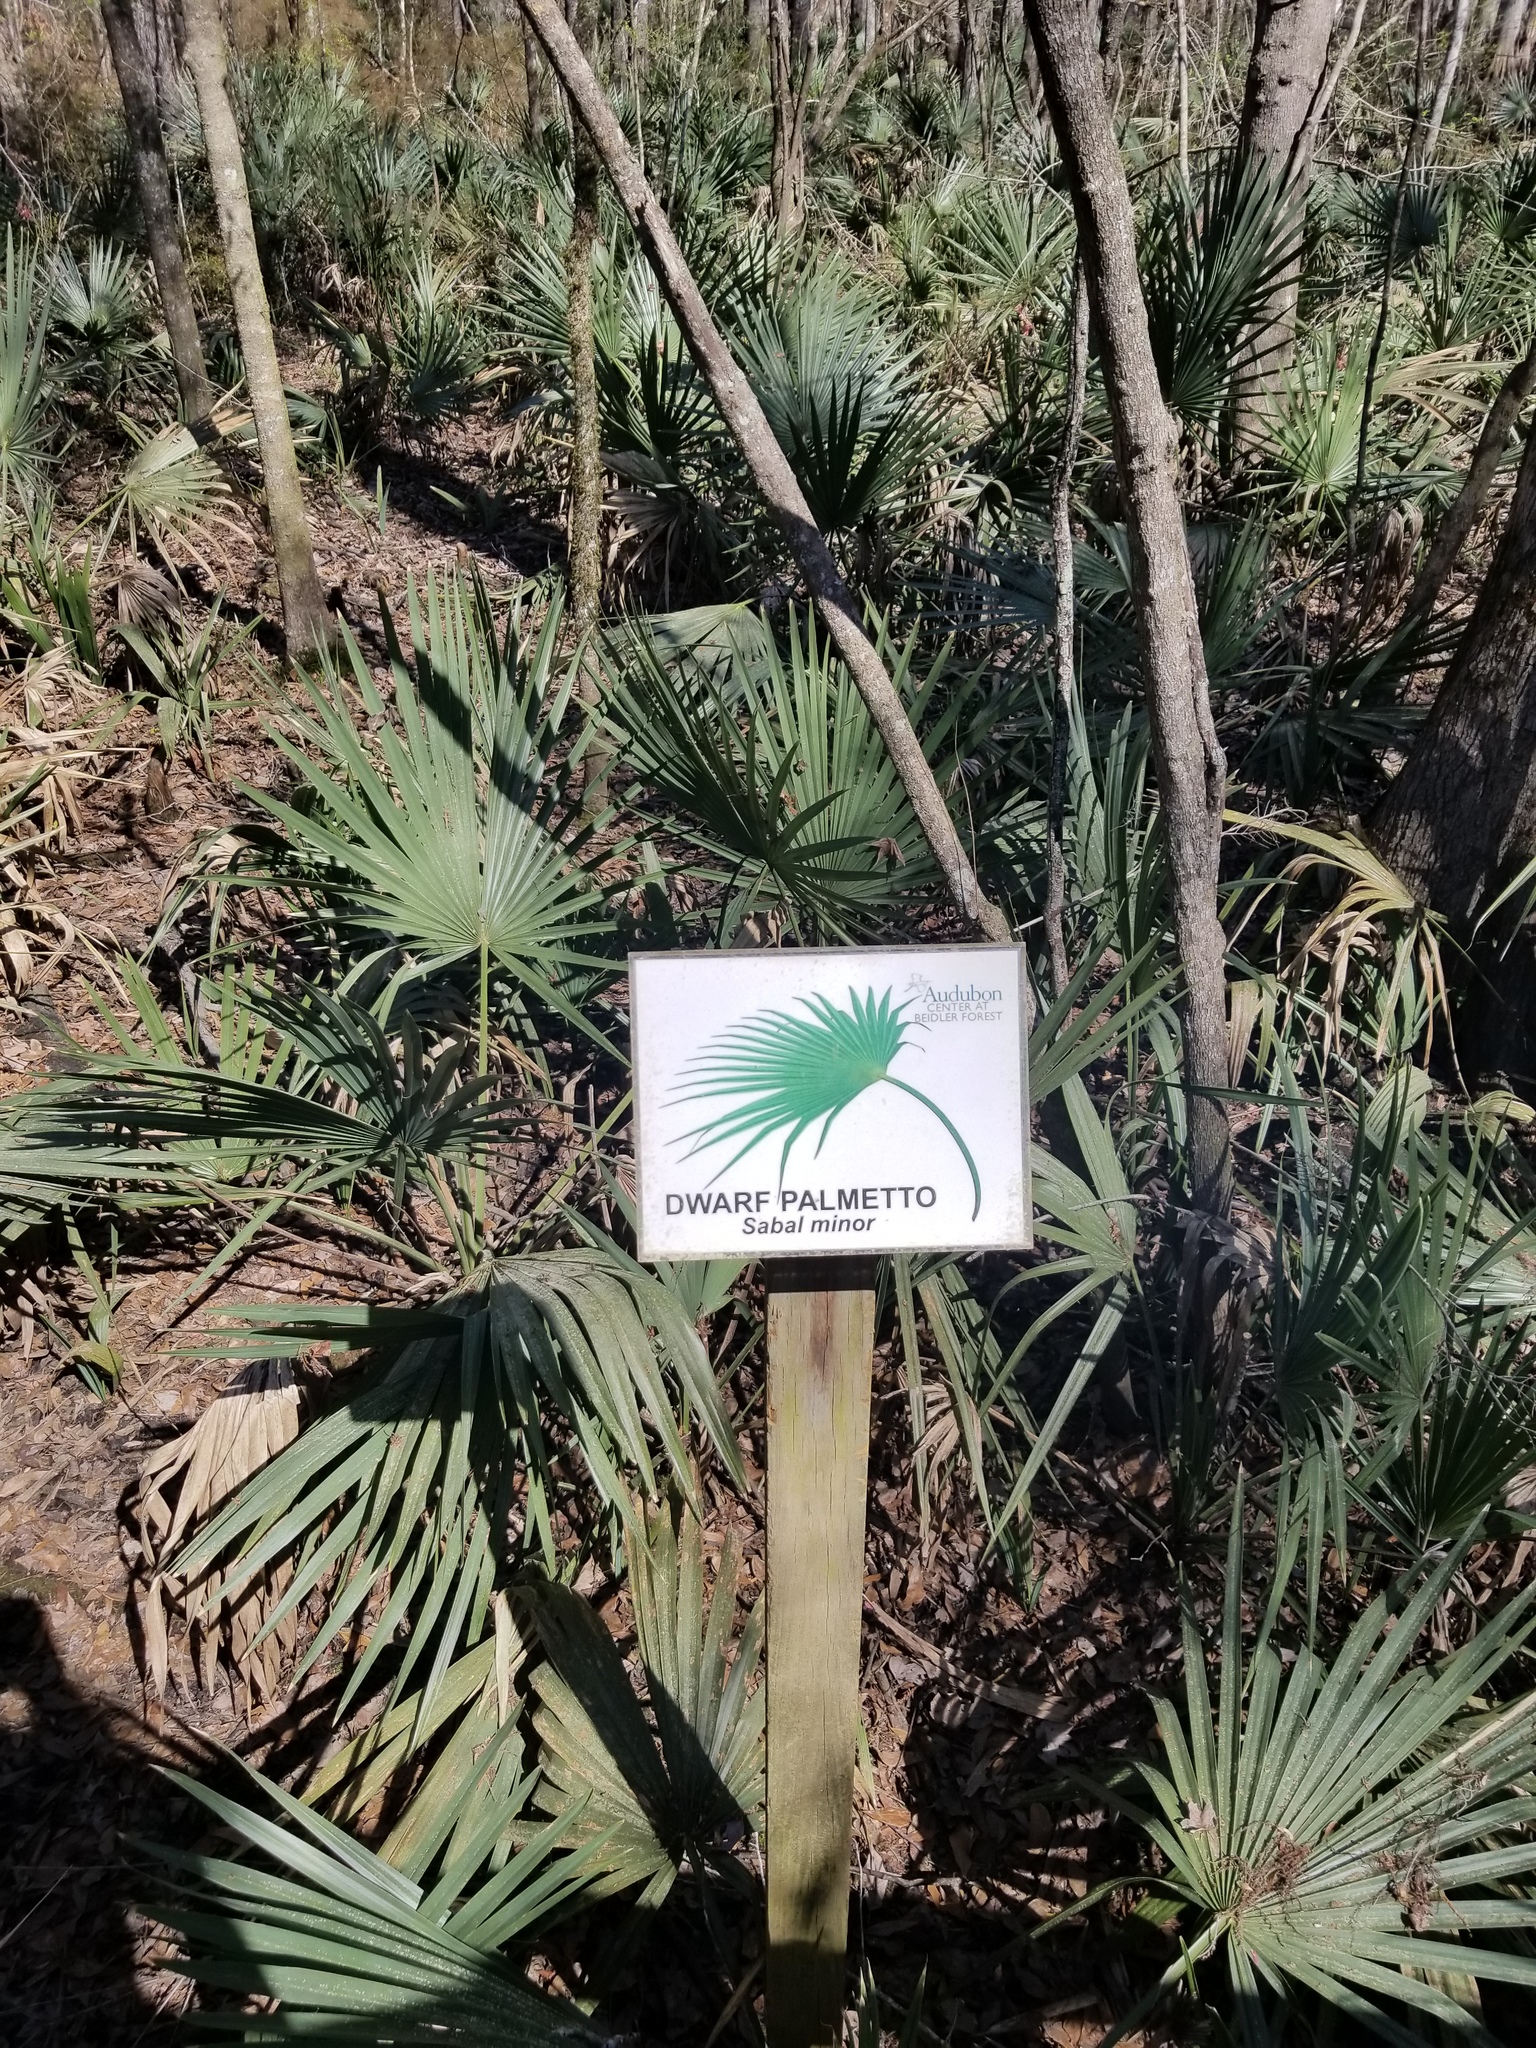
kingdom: Plantae
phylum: Tracheophyta
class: Liliopsida
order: Arecales
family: Arecaceae
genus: Sabal
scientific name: Sabal minor
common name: Dwarf palmetto
